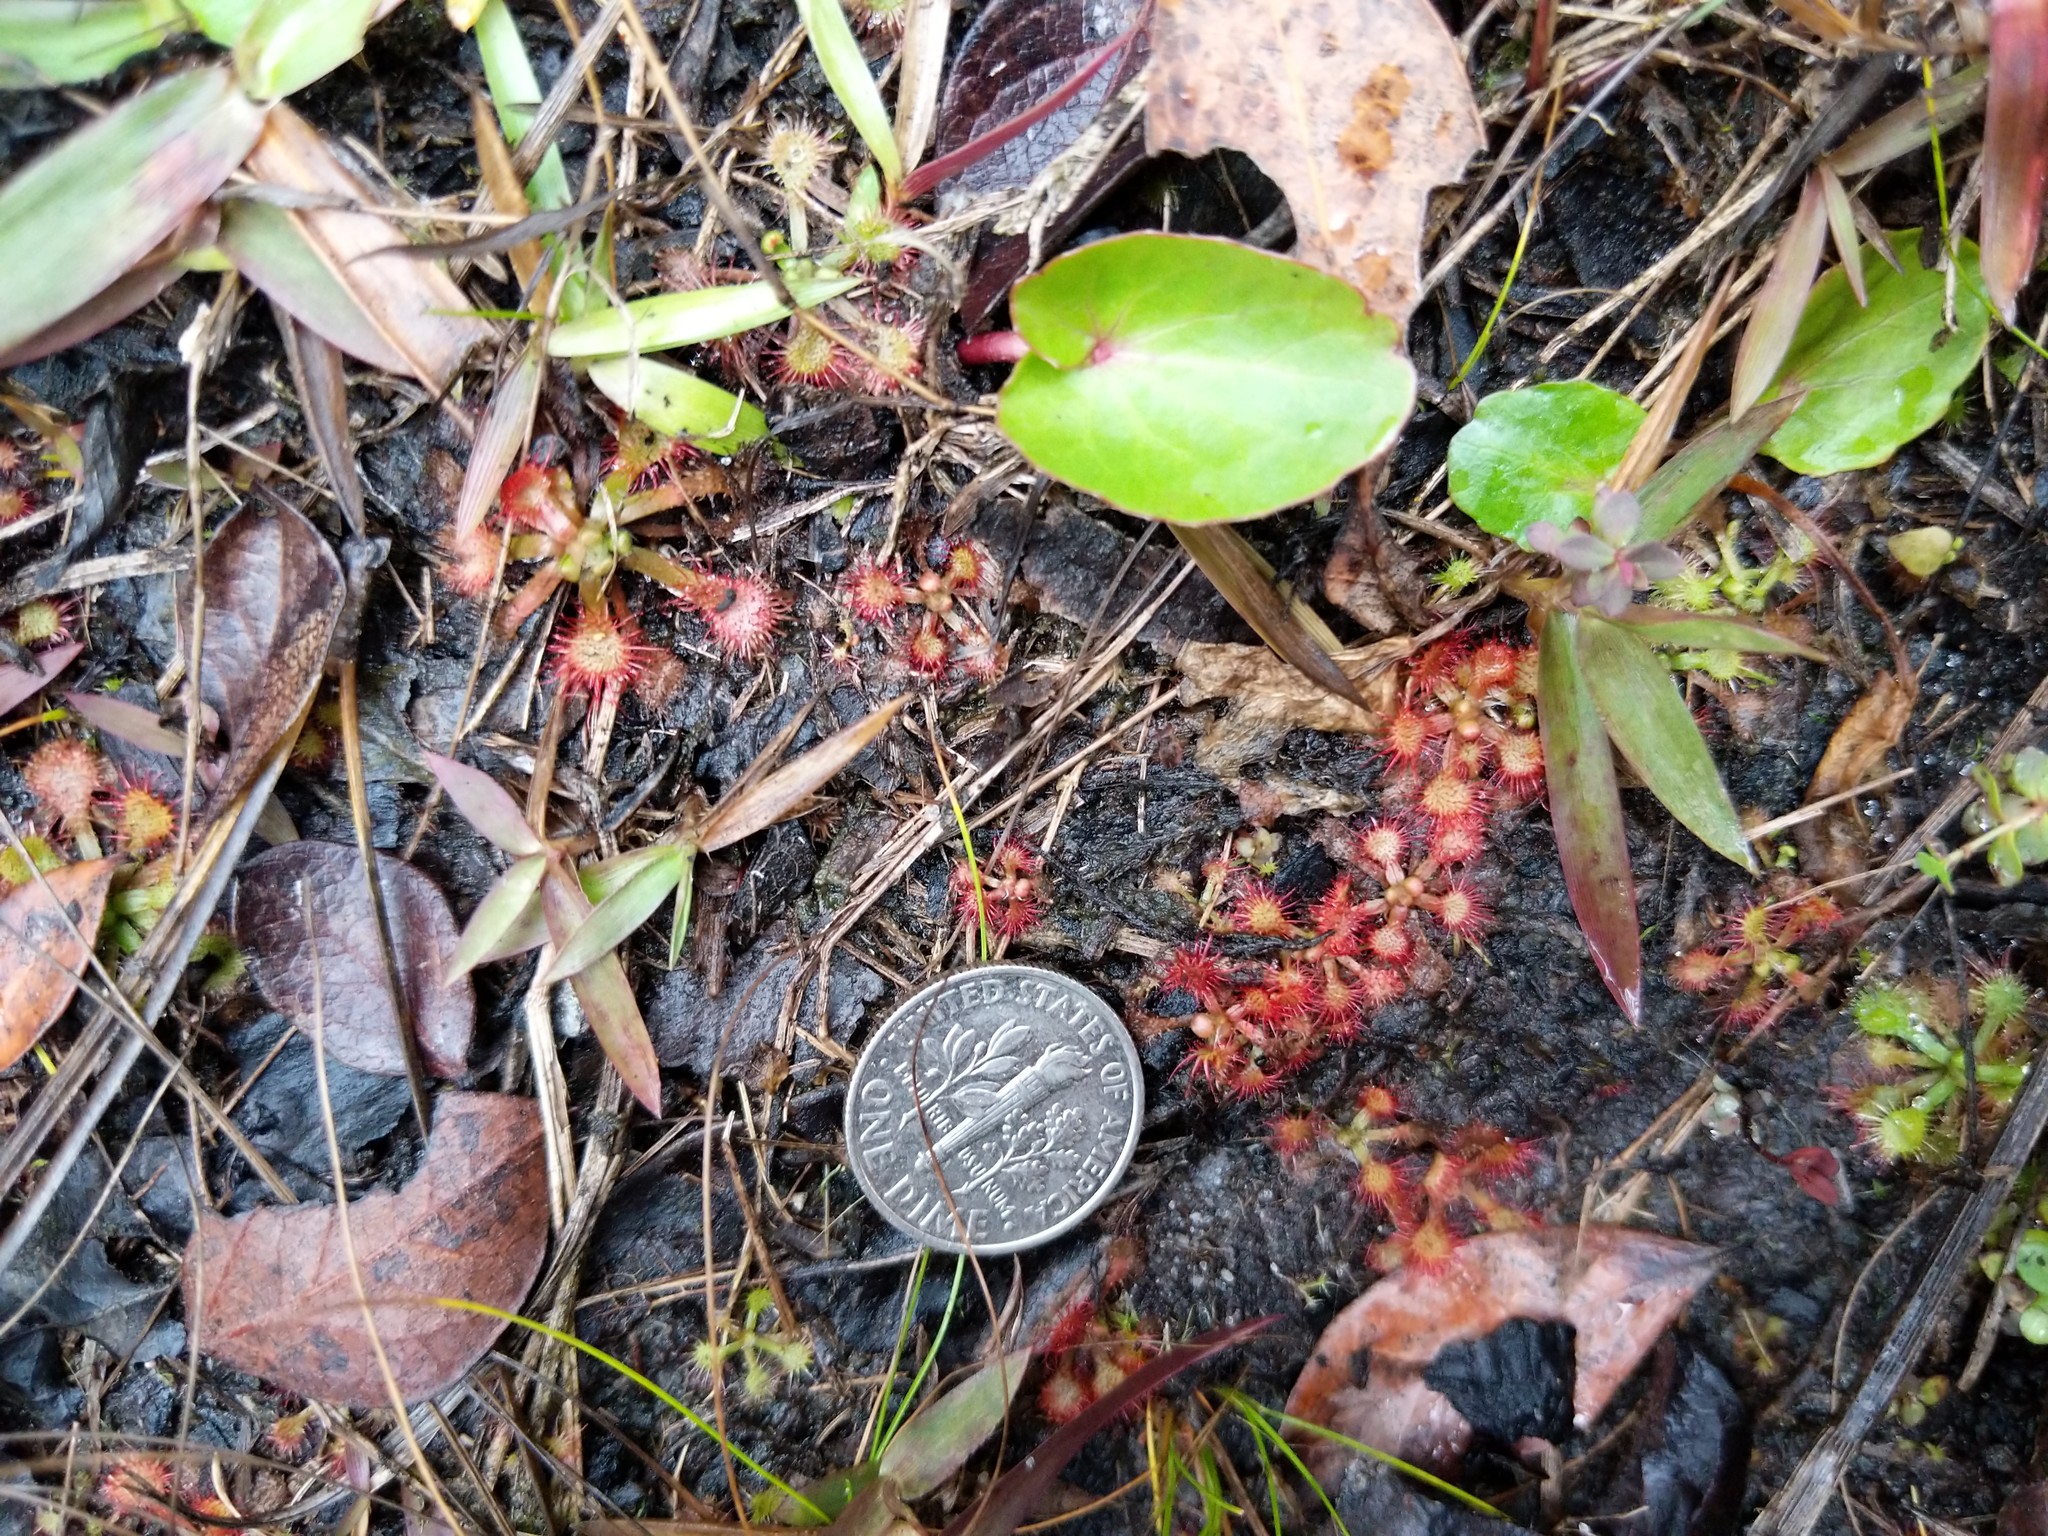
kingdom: Plantae
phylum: Tracheophyta
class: Magnoliopsida
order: Caryophyllales
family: Droseraceae
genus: Drosera
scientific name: Drosera brevifolia
